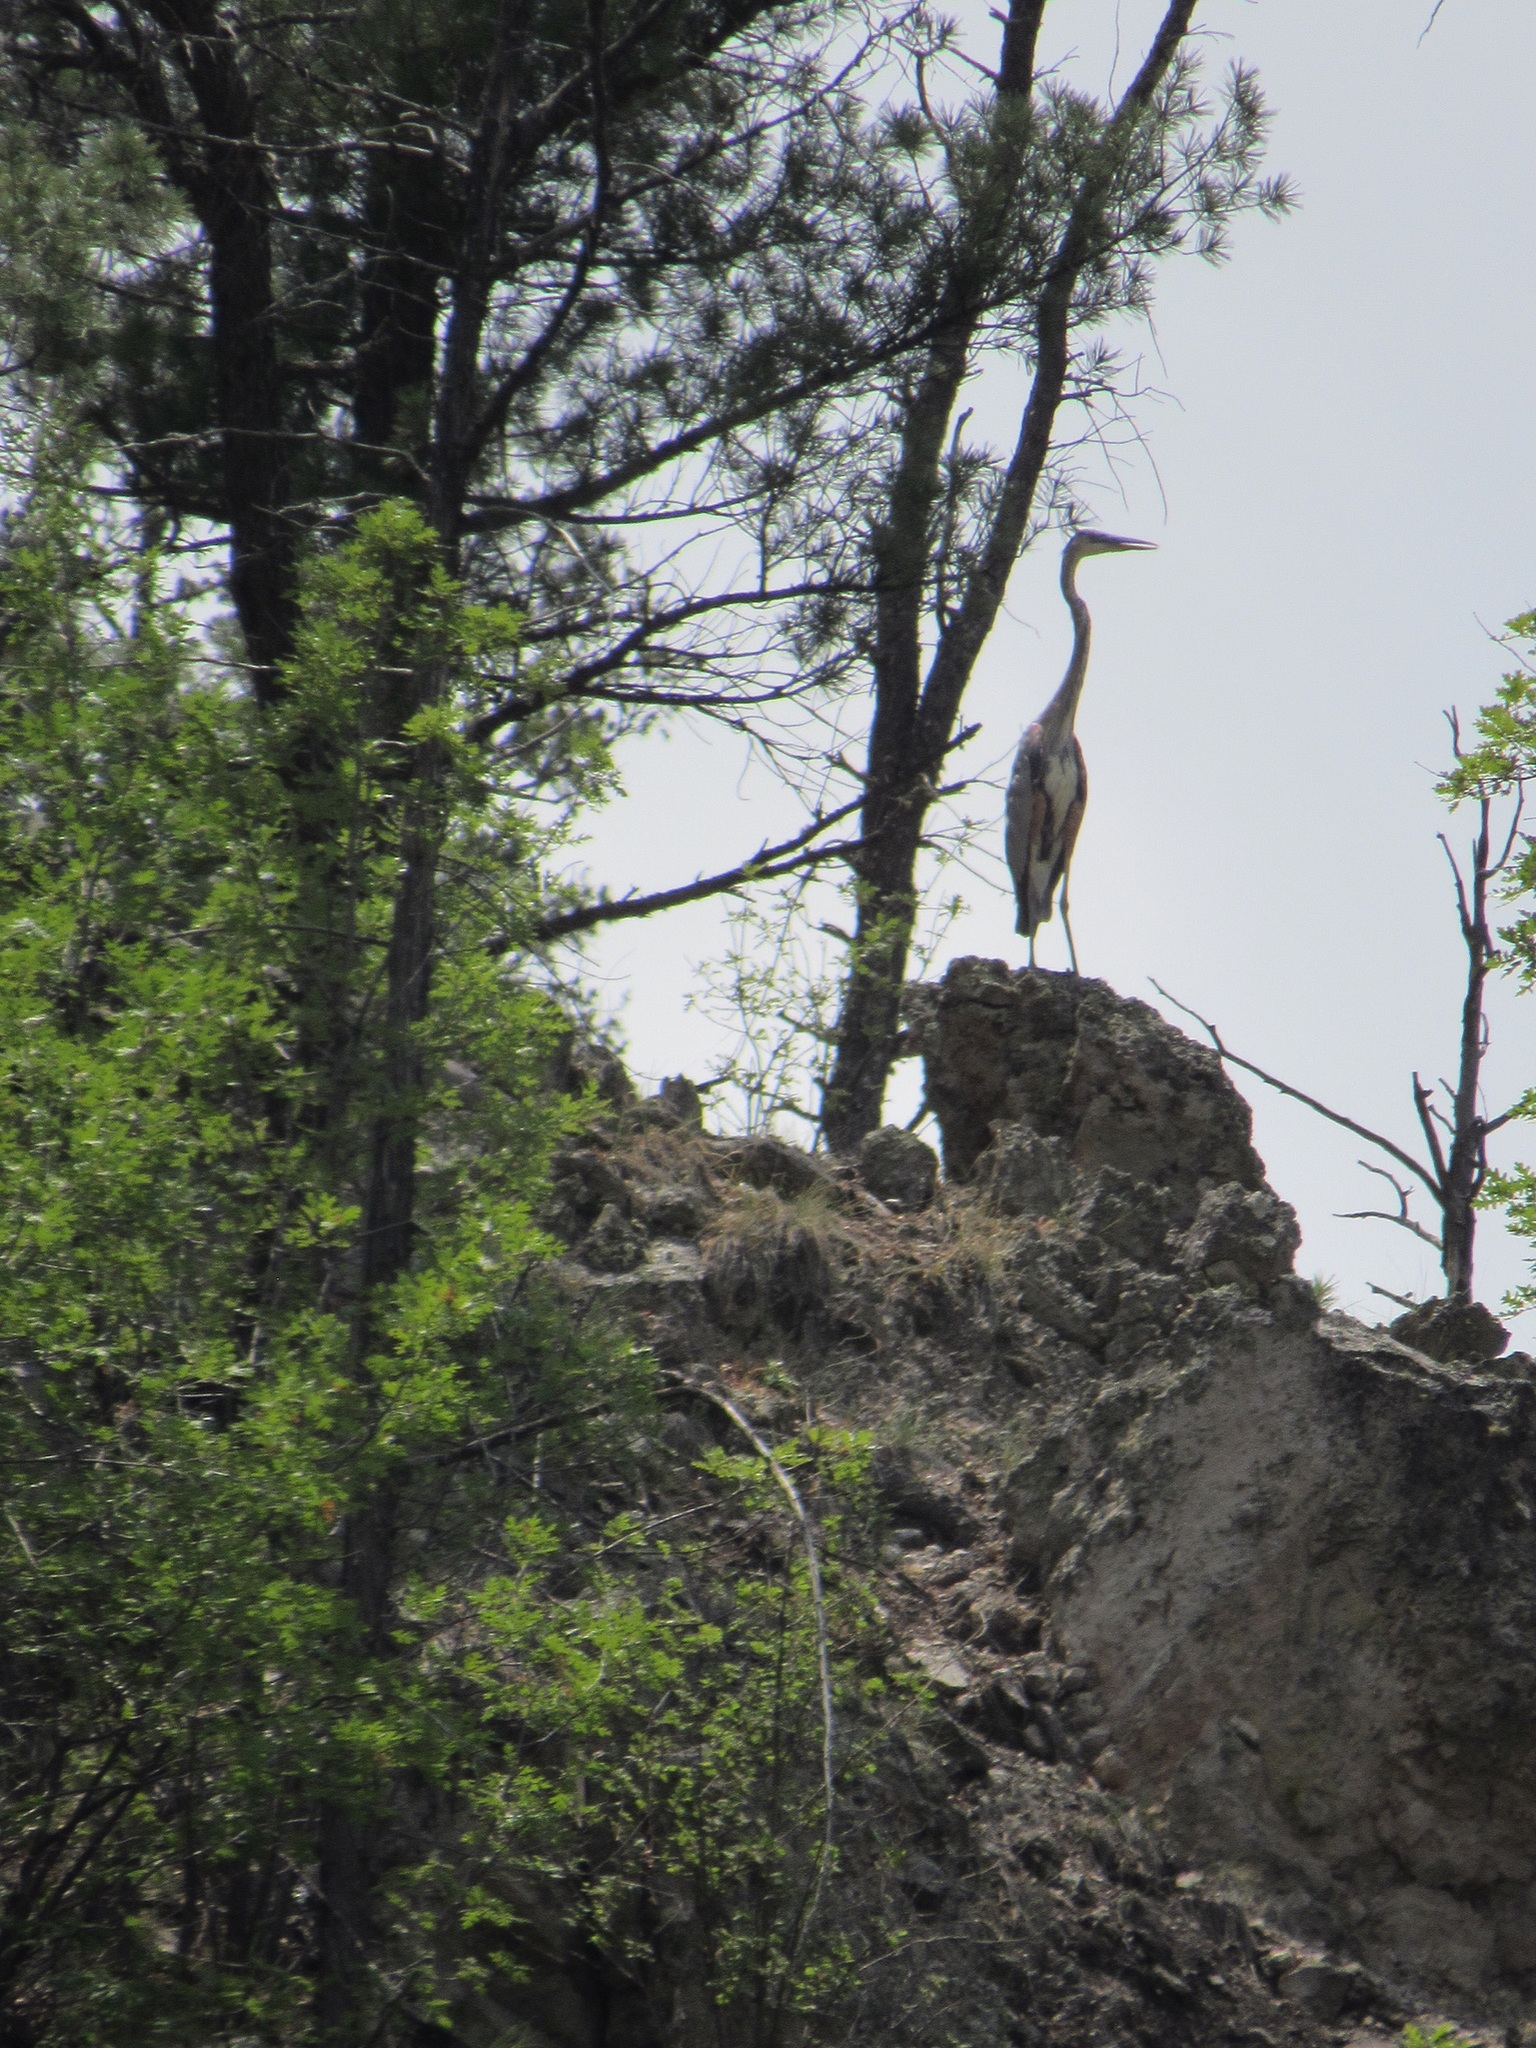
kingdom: Animalia
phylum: Chordata
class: Aves
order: Pelecaniformes
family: Ardeidae
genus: Ardea
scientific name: Ardea herodias
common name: Great blue heron
